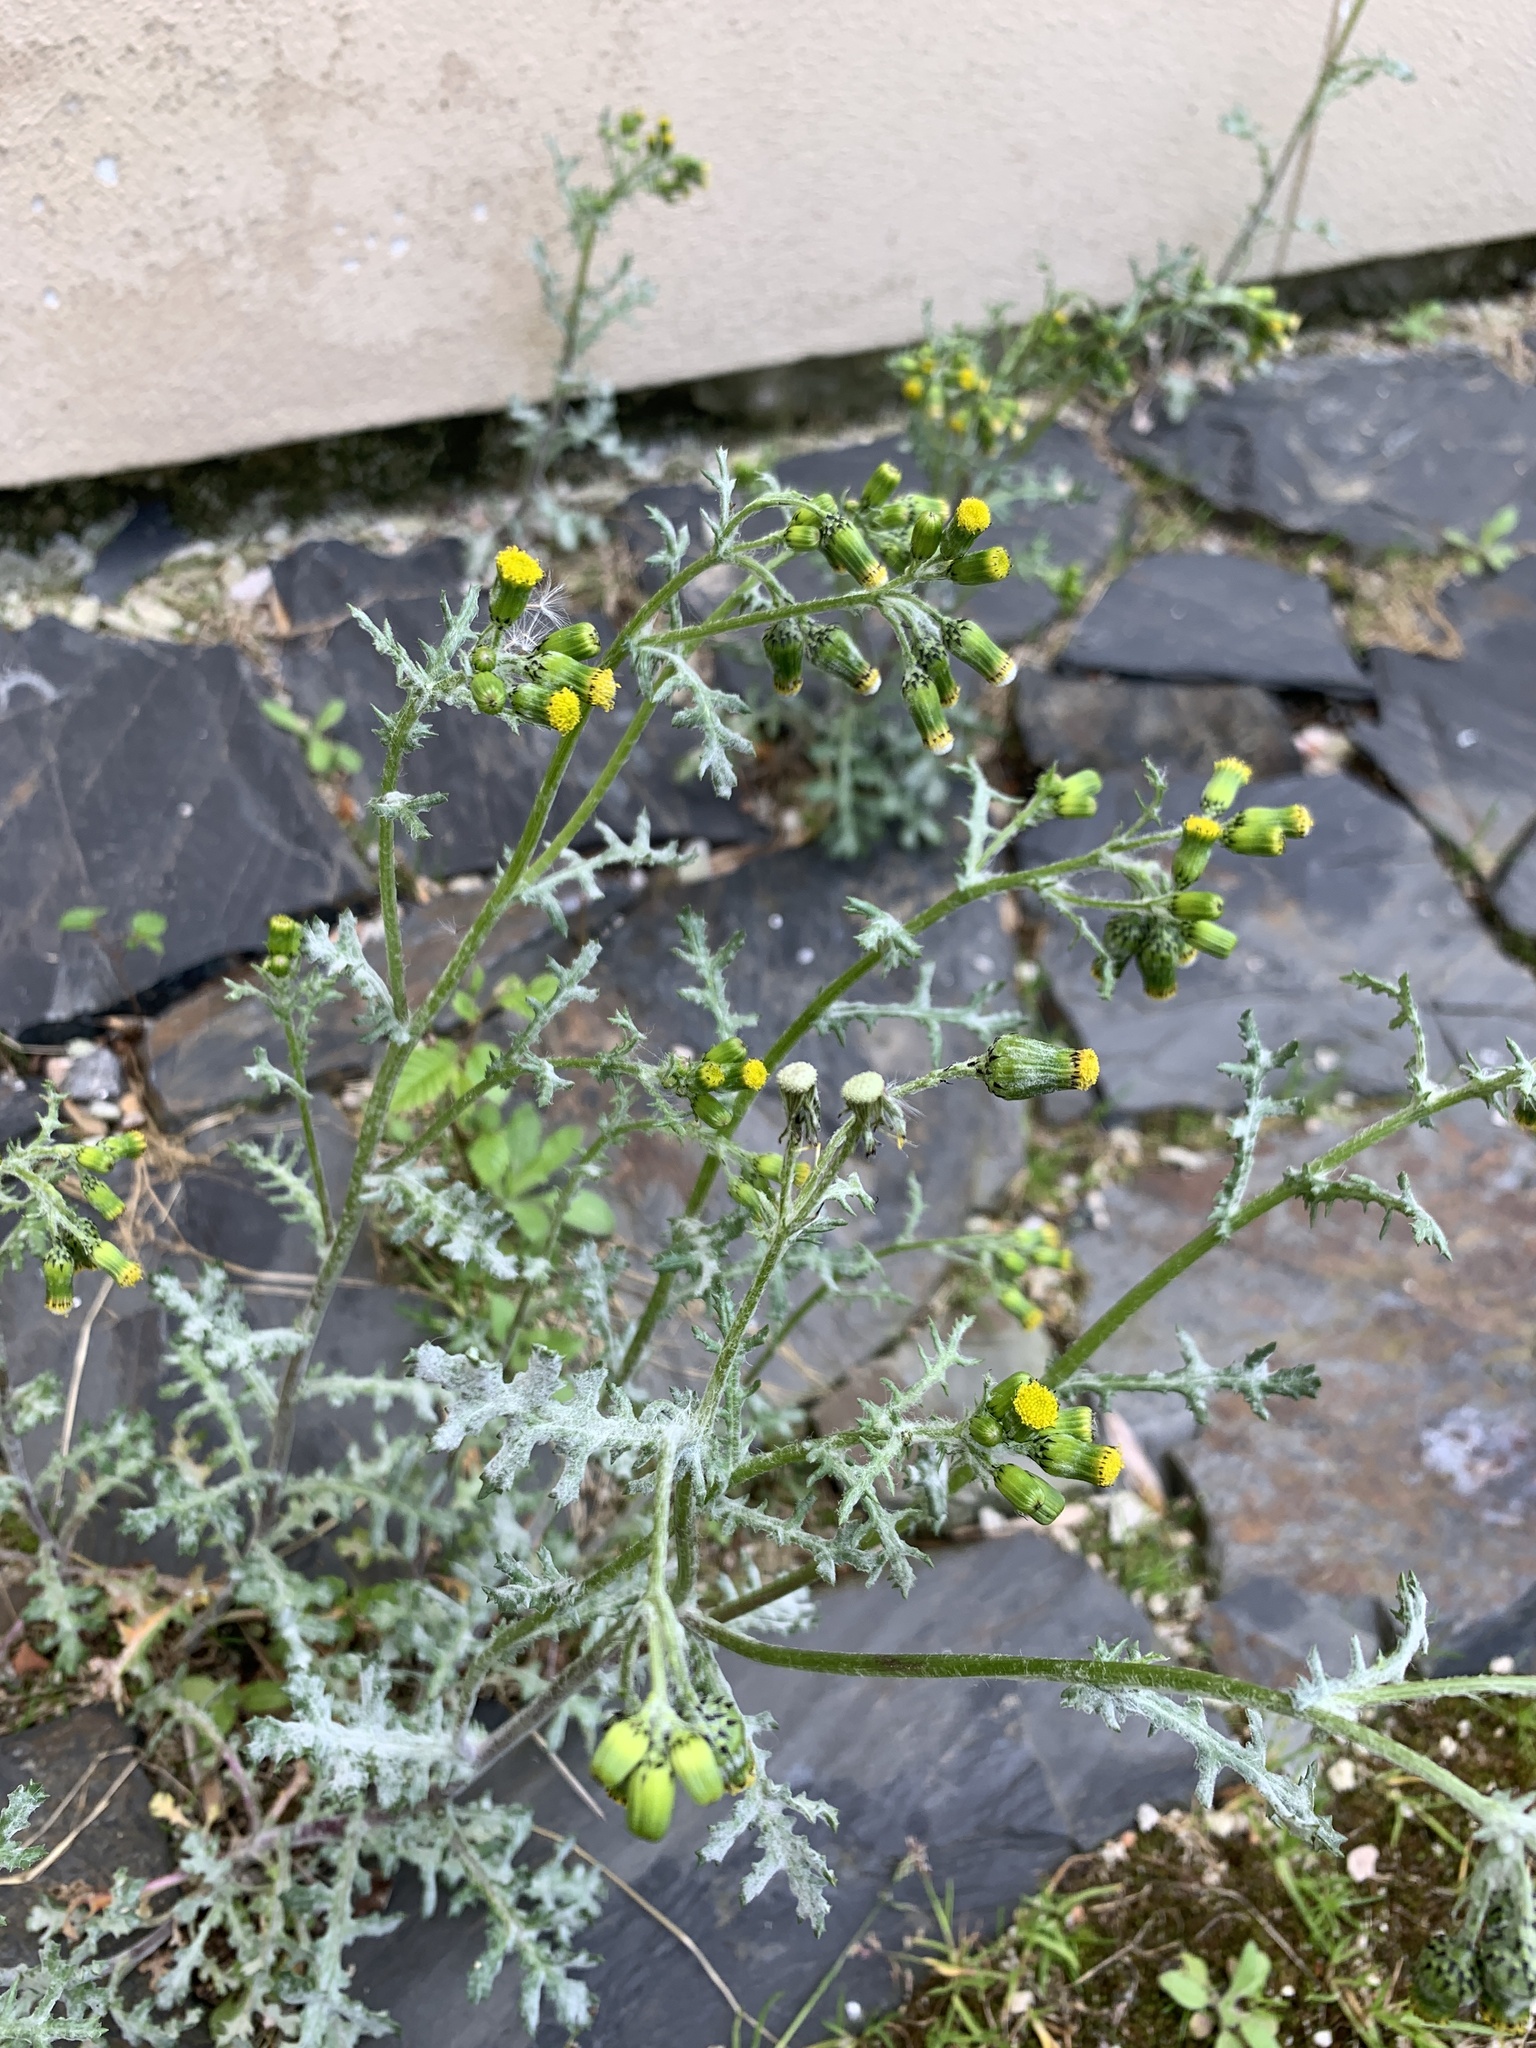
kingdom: Plantae
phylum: Tracheophyta
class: Magnoliopsida
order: Asterales
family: Asteraceae
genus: Senecio
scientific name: Senecio vulgaris
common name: Old-man-in-the-spring
